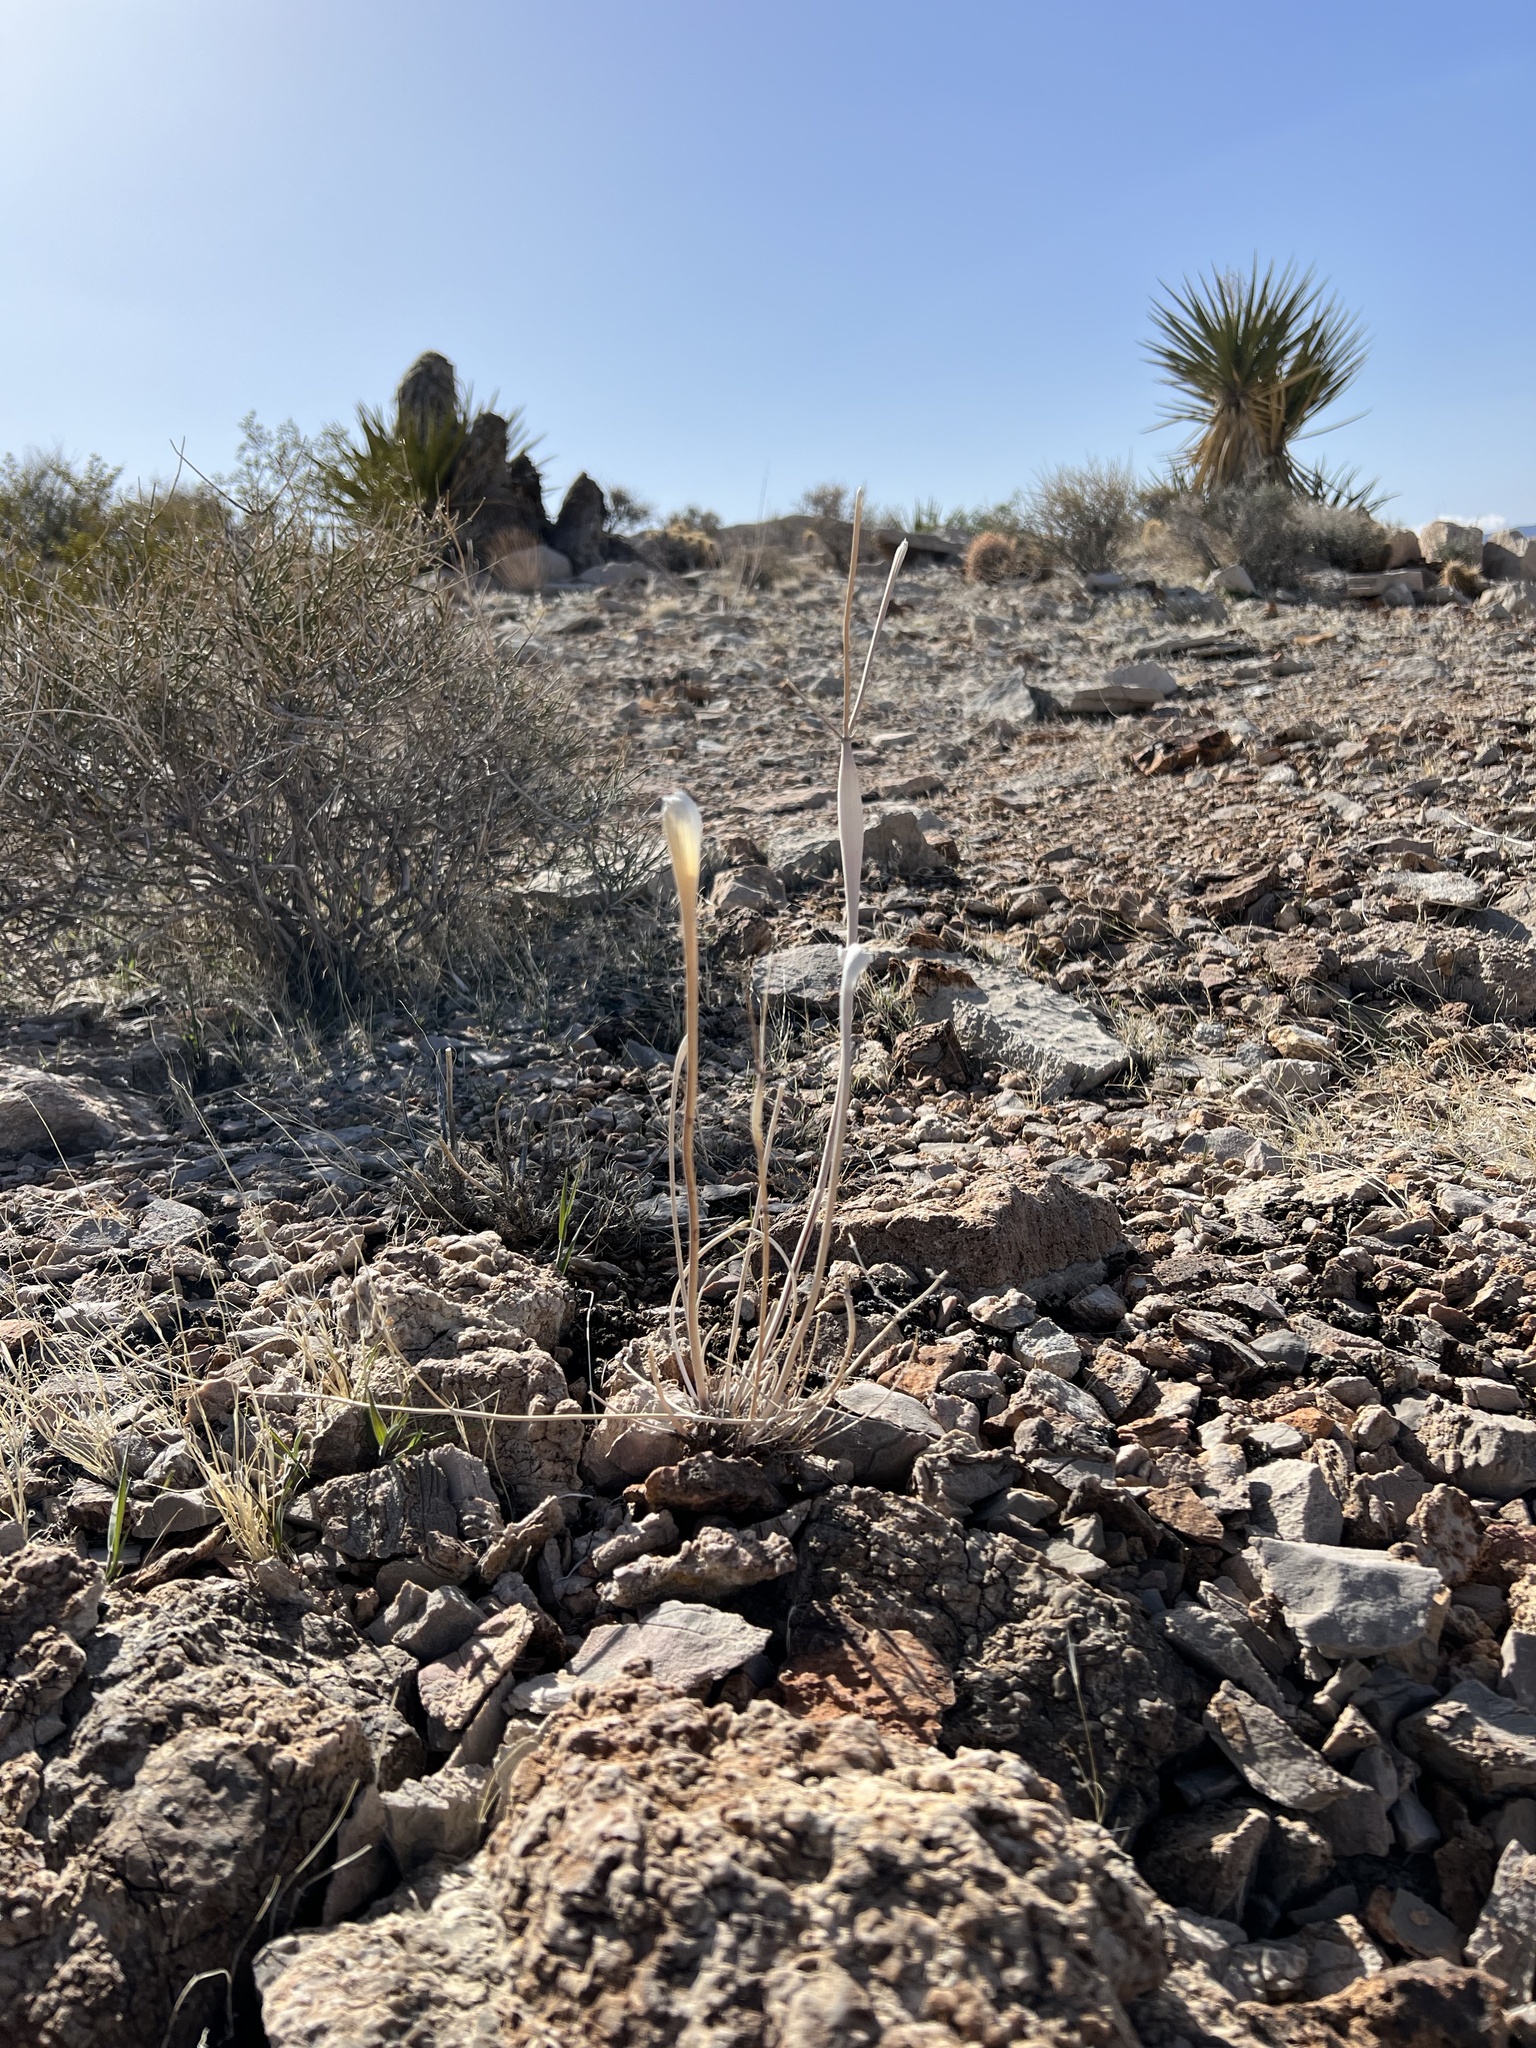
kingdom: Plantae
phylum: Tracheophyta
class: Magnoliopsida
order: Caryophyllales
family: Polygonaceae
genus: Eriogonum
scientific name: Eriogonum inflatum
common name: Desert trumpet
